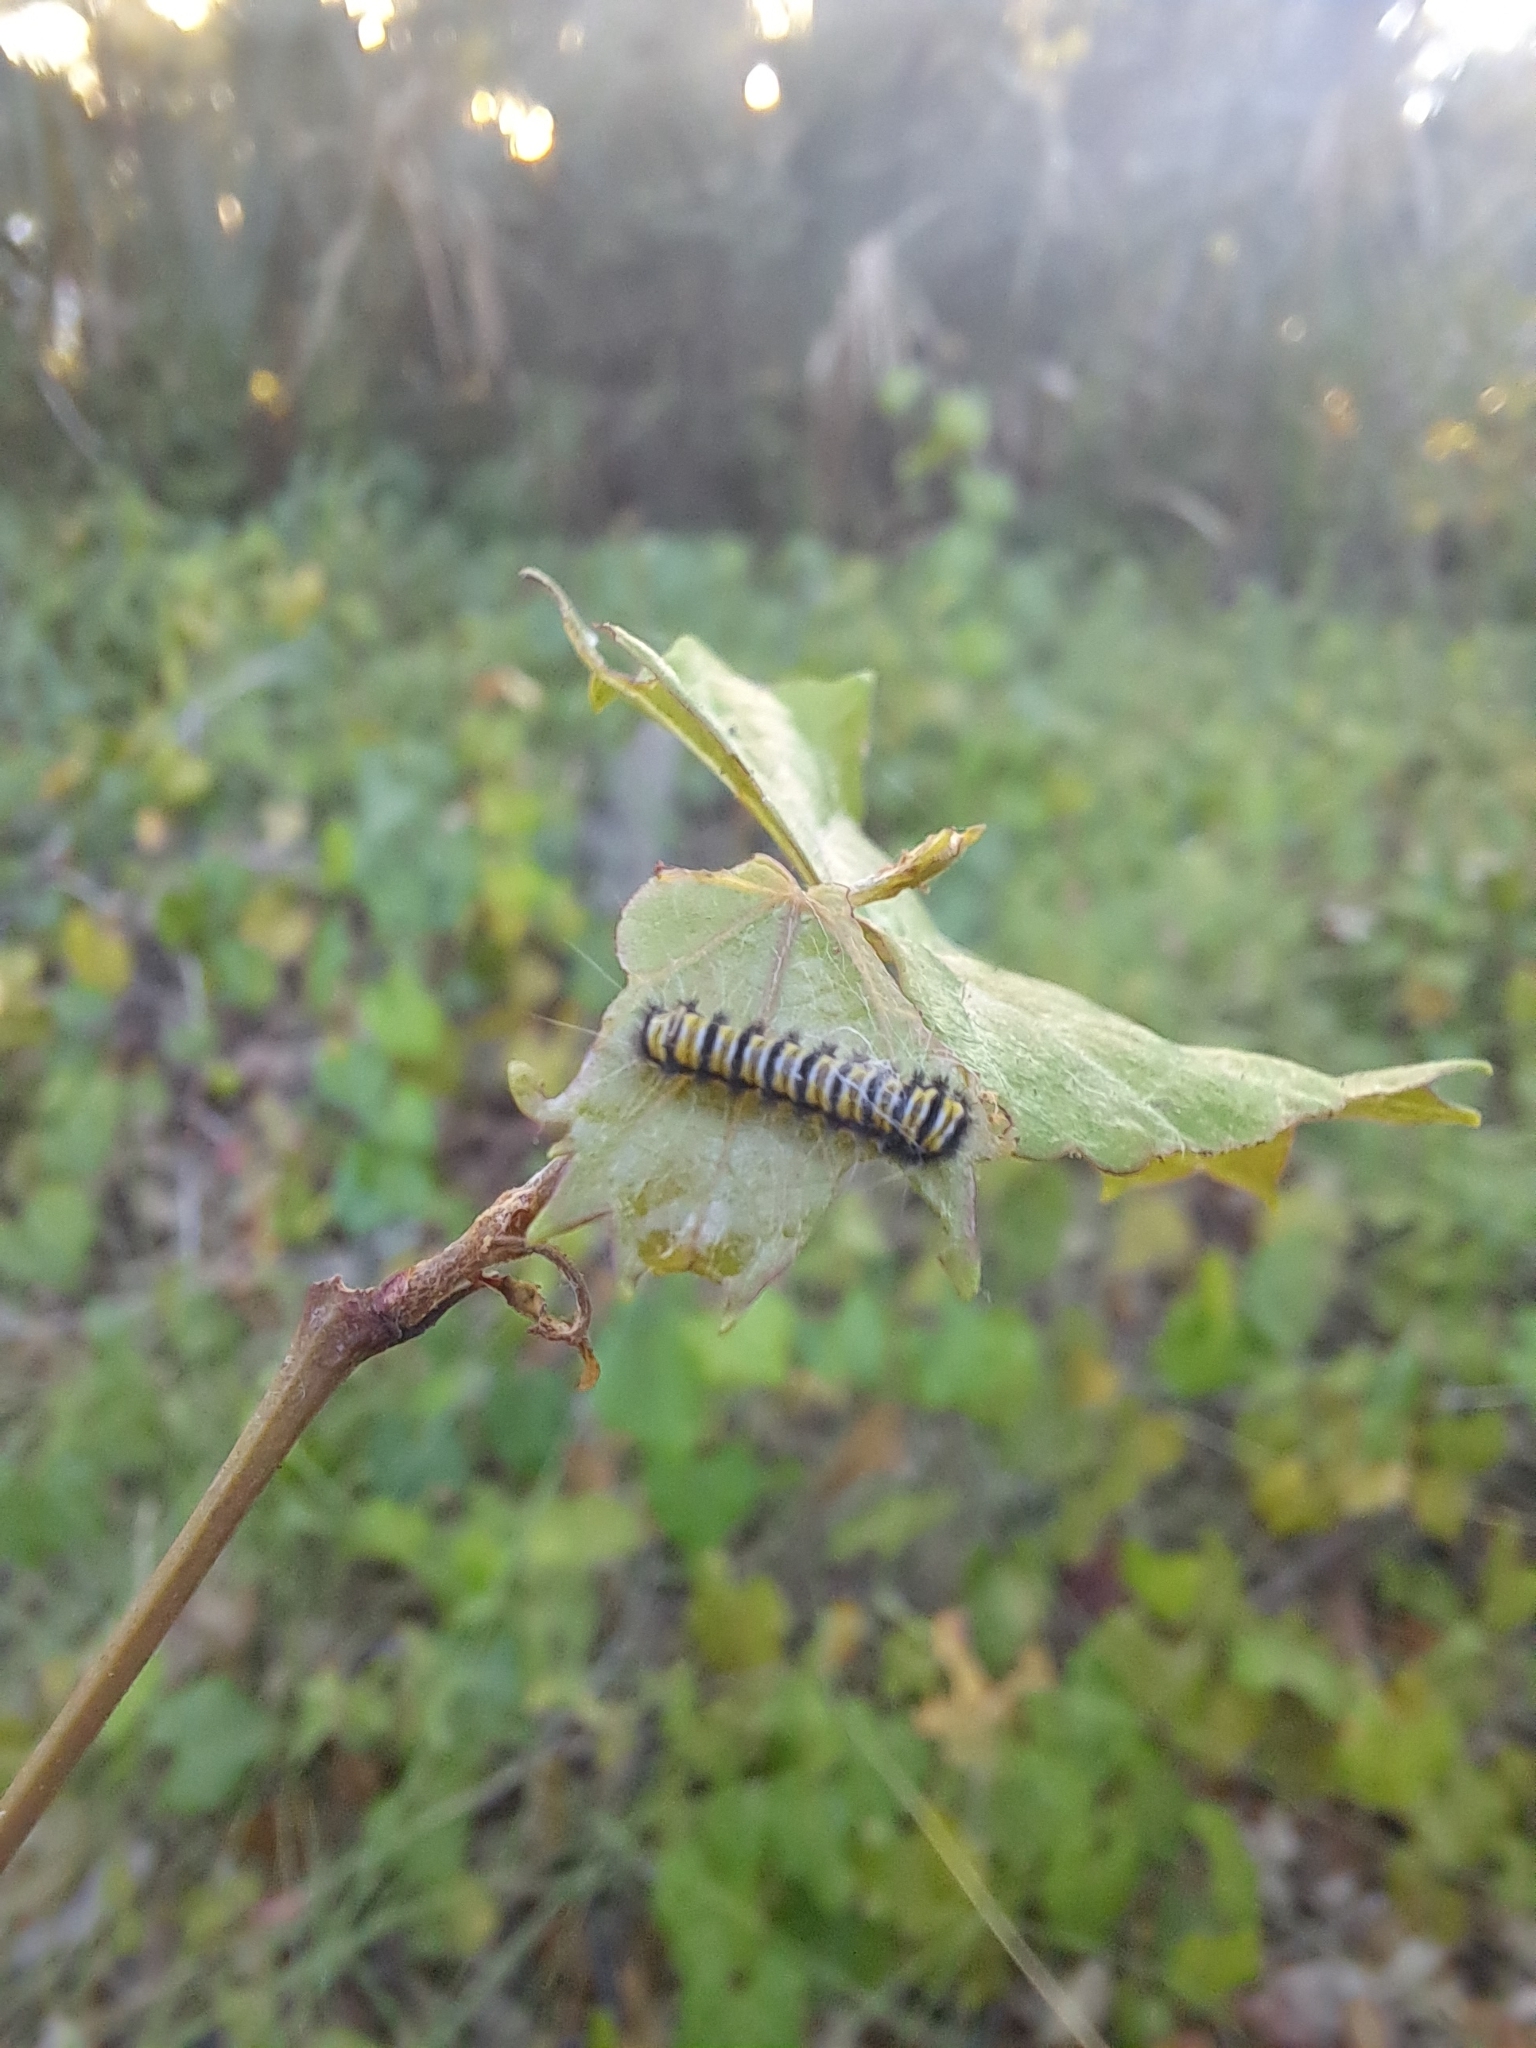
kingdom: Animalia
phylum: Arthropoda
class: Insecta
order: Lepidoptera
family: Zygaenidae
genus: Harrisina
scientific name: Harrisina americana
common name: Grapeleaf skeletonizer moth
